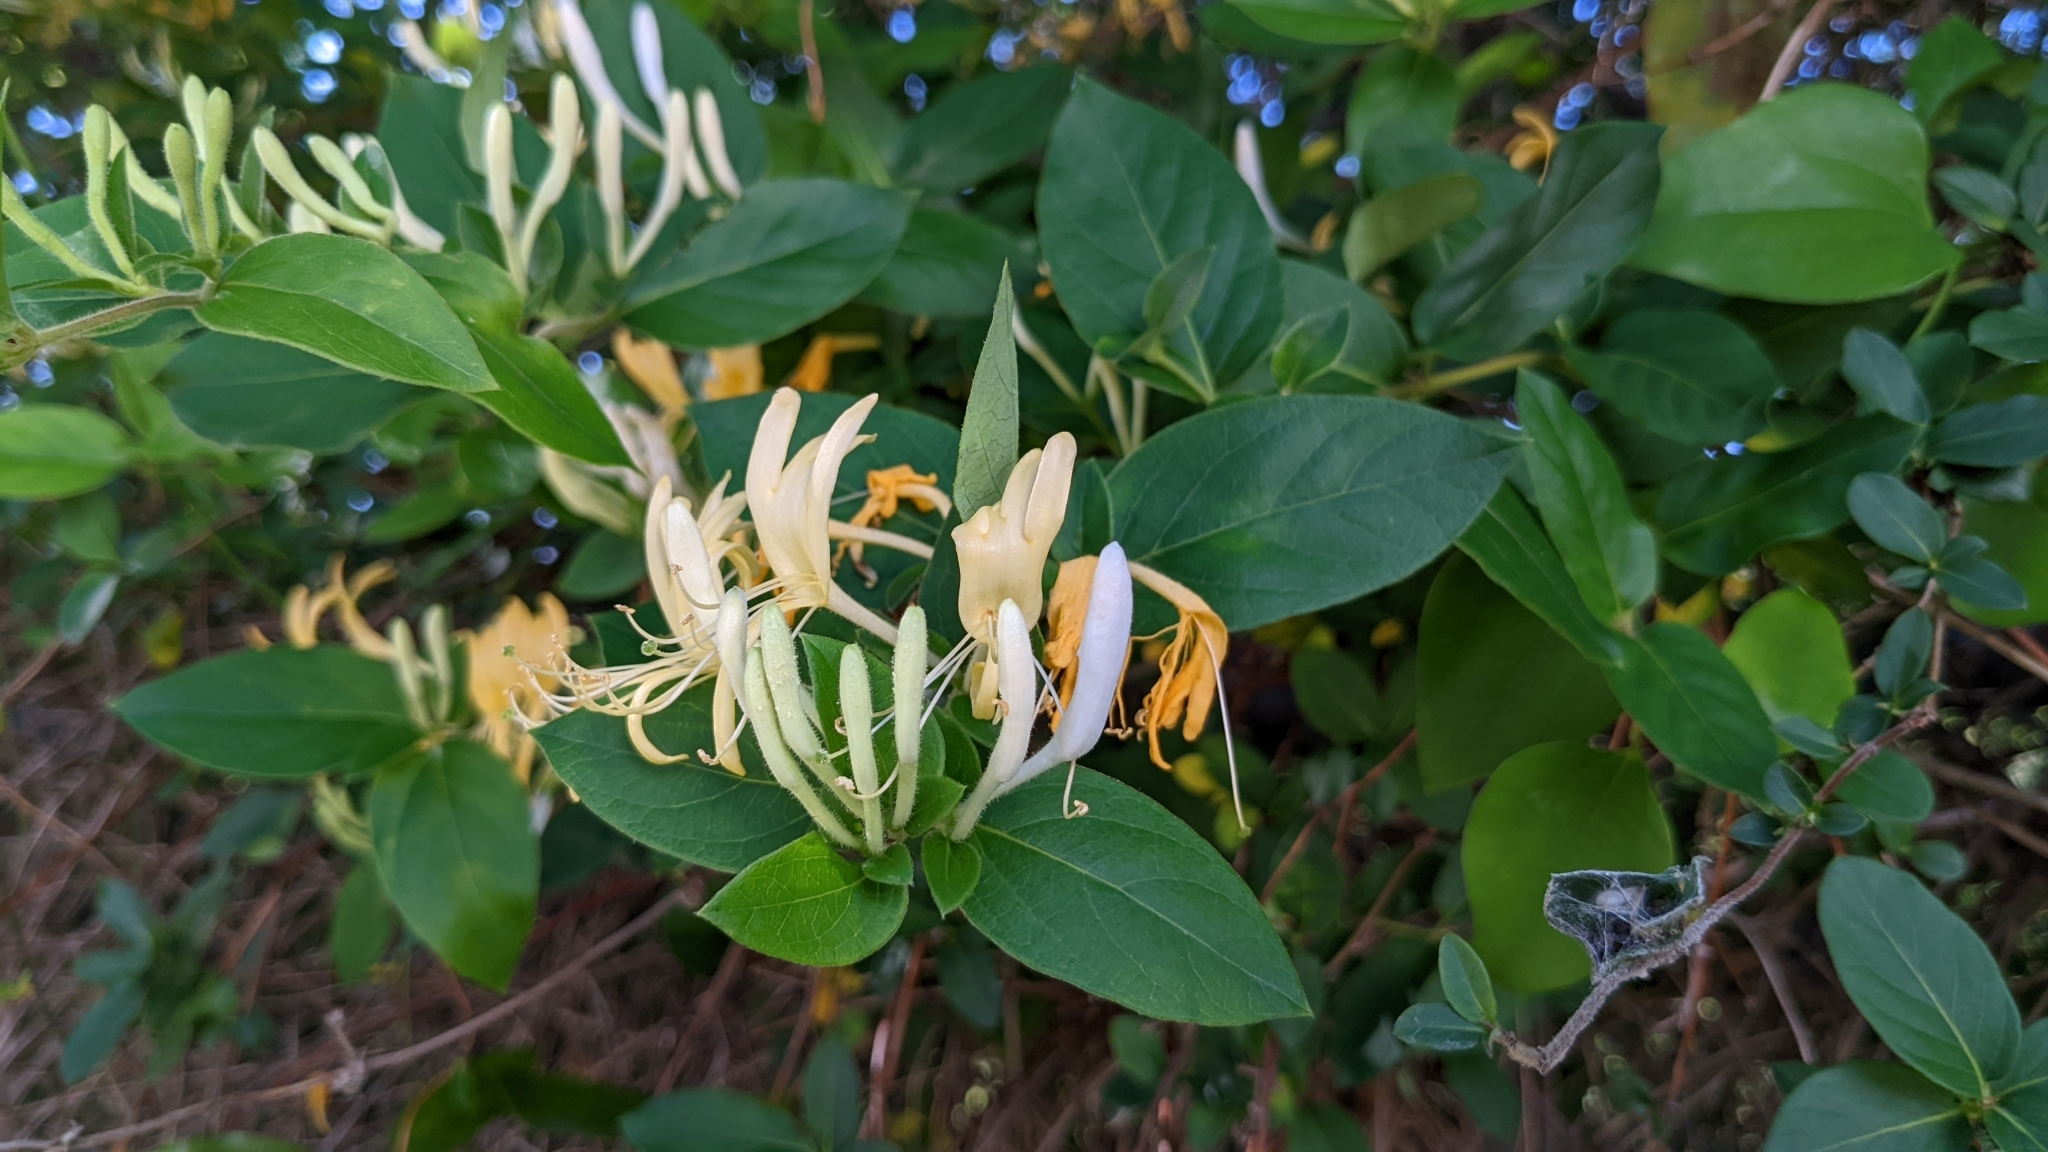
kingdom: Plantae
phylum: Tracheophyta
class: Magnoliopsida
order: Dipsacales
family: Caprifoliaceae
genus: Lonicera
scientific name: Lonicera japonica
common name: Japanese honeysuckle
